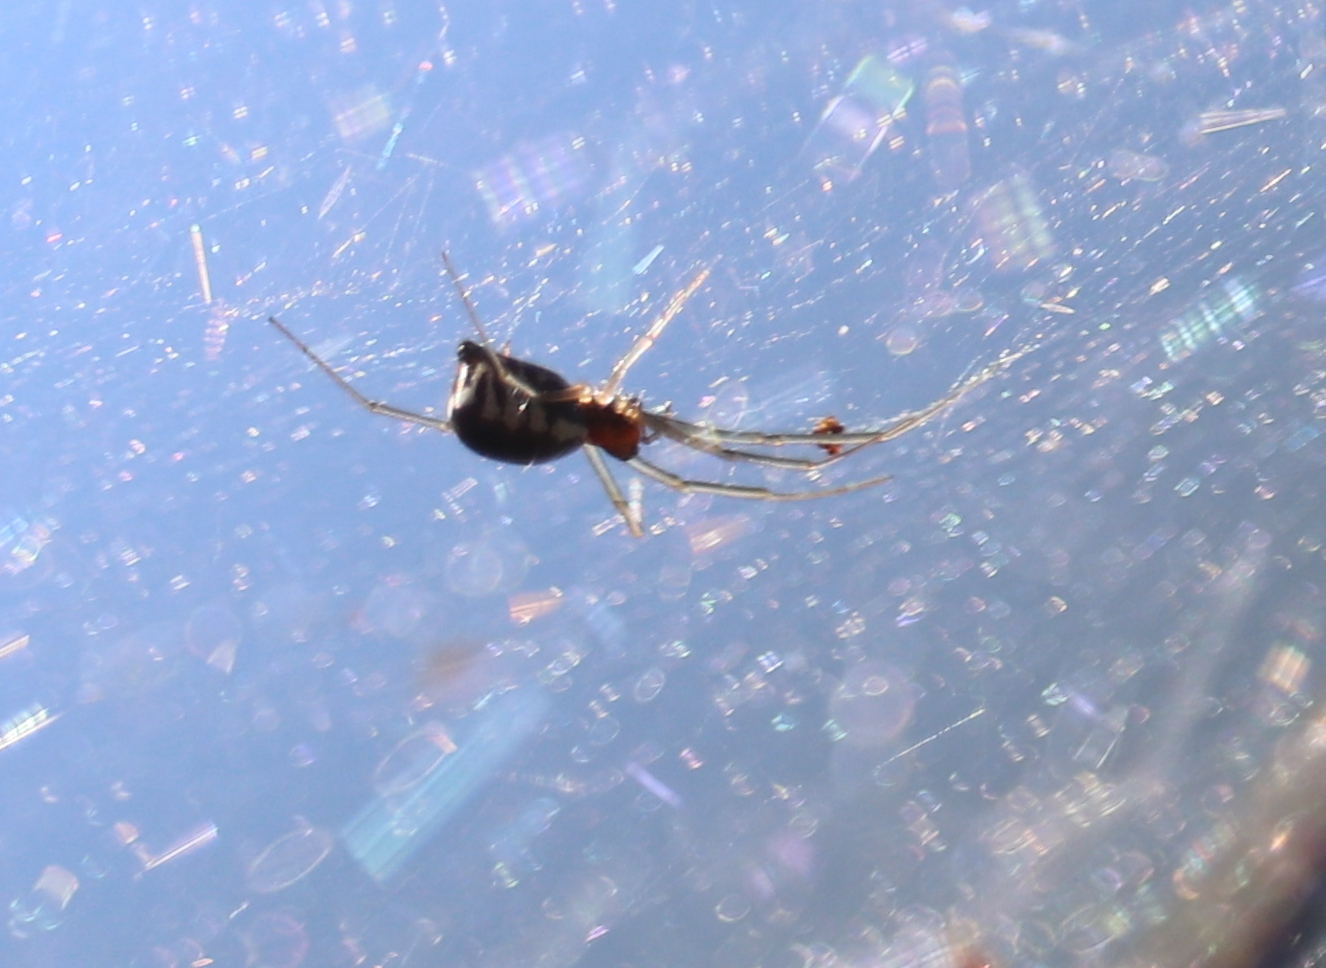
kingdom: Animalia
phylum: Arthropoda
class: Arachnida
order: Araneae
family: Linyphiidae
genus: Frontinella
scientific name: Frontinella pyramitela
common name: Bowl-and-doily spider
